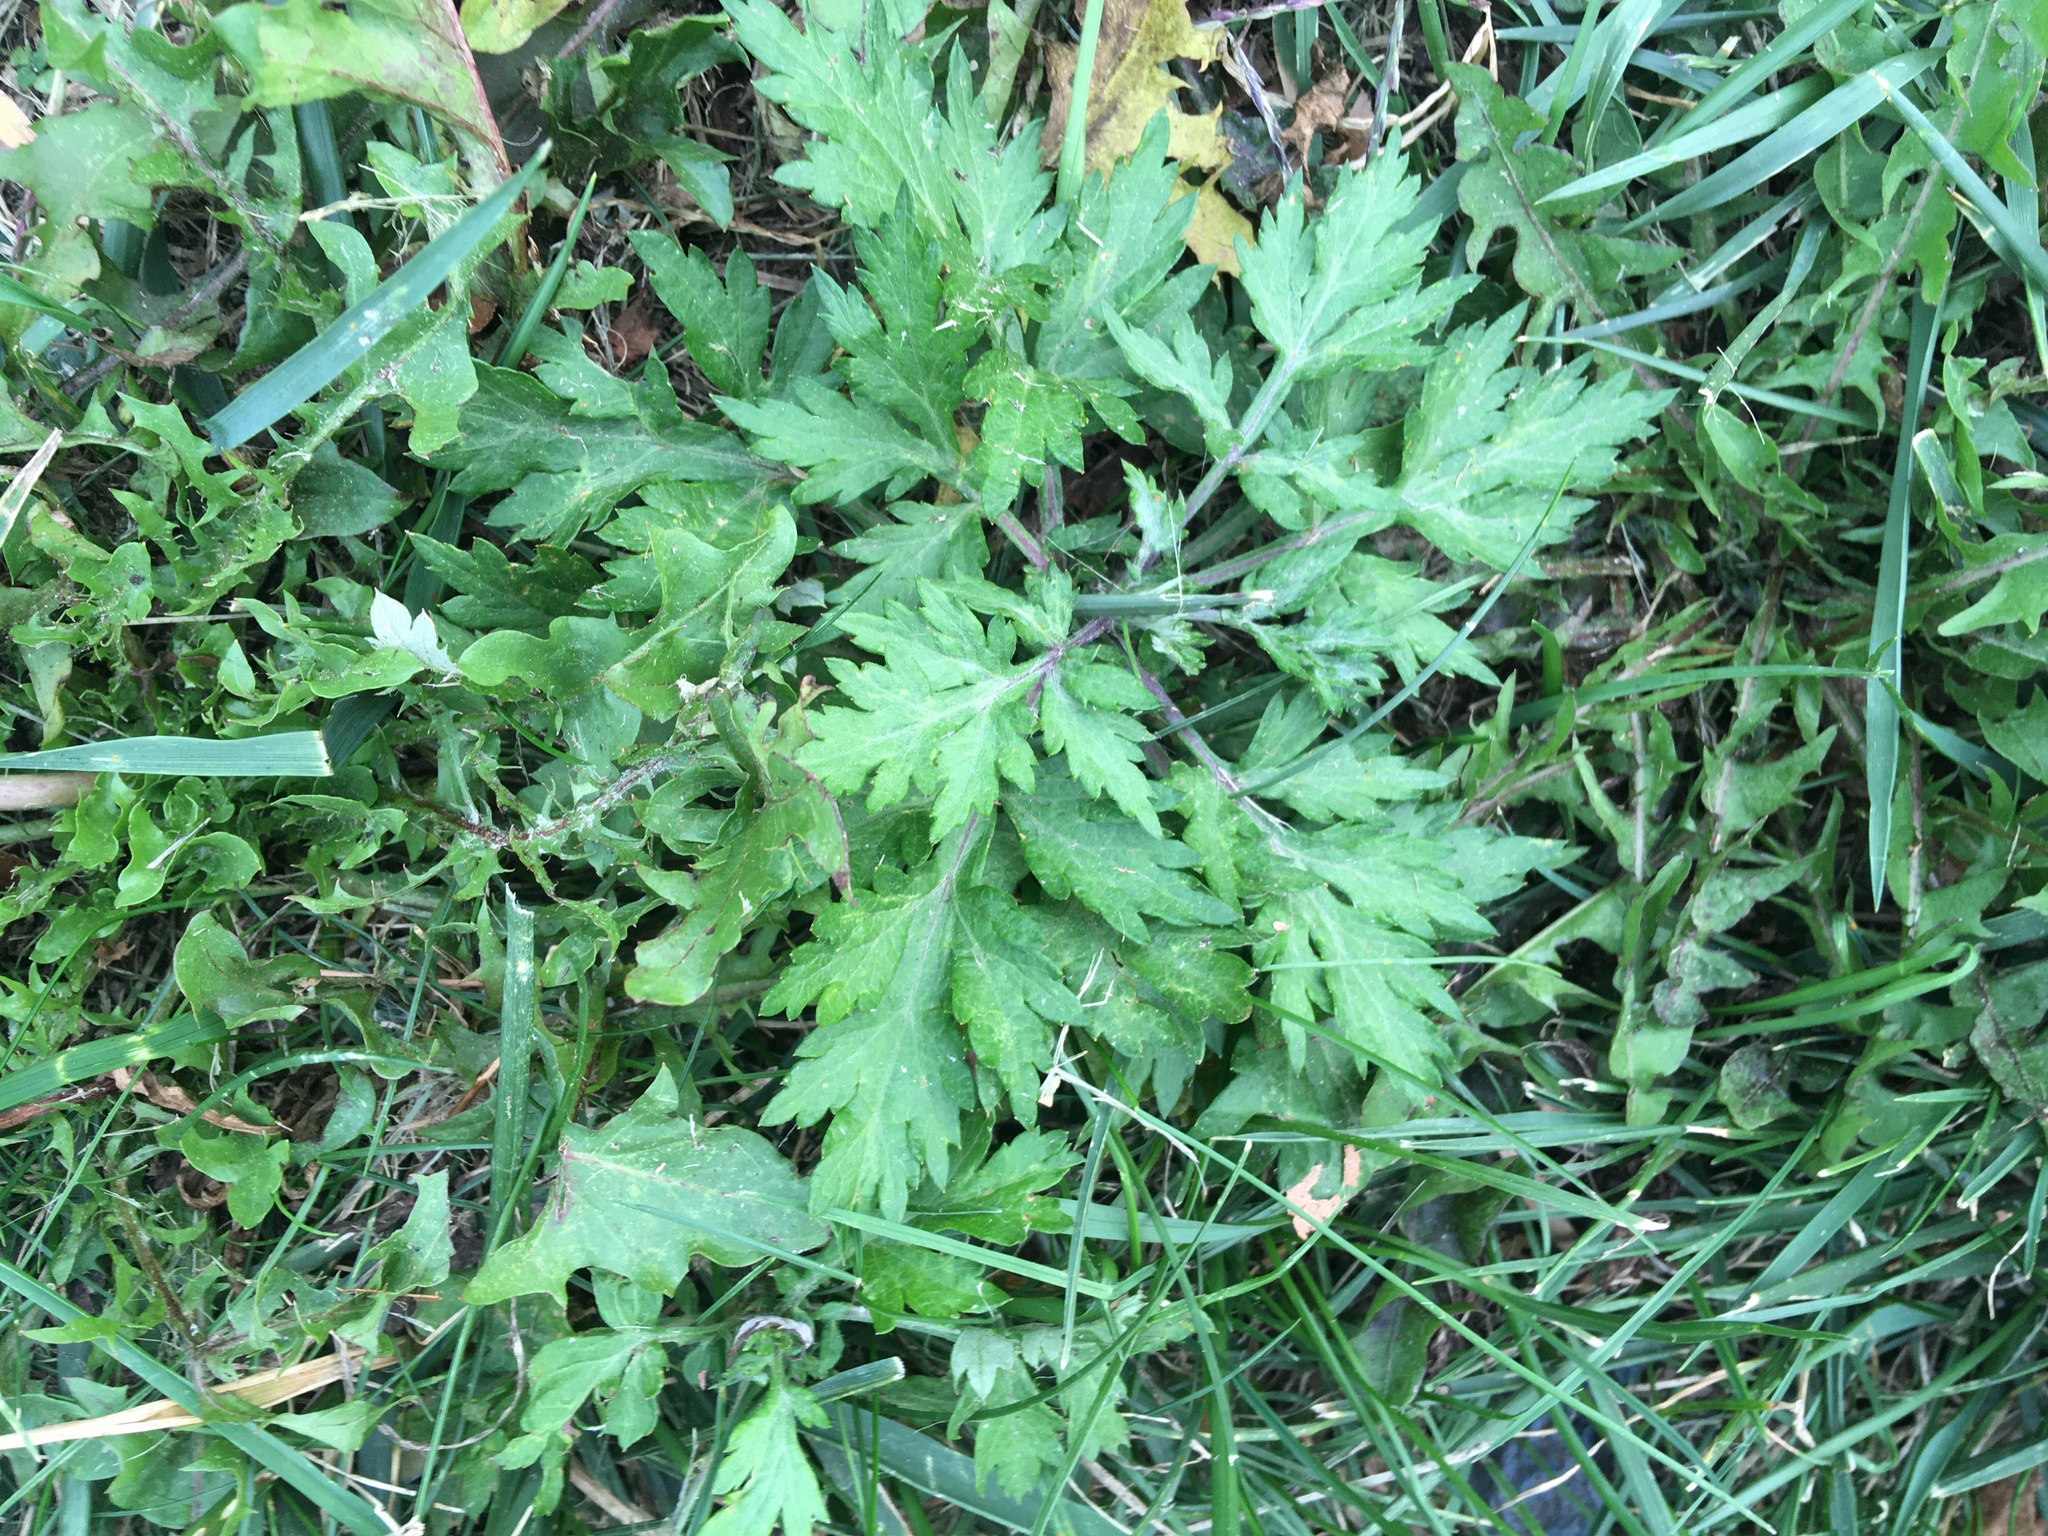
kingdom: Plantae
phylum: Tracheophyta
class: Magnoliopsida
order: Asterales
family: Asteraceae
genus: Artemisia
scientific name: Artemisia vulgaris
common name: Mugwort
